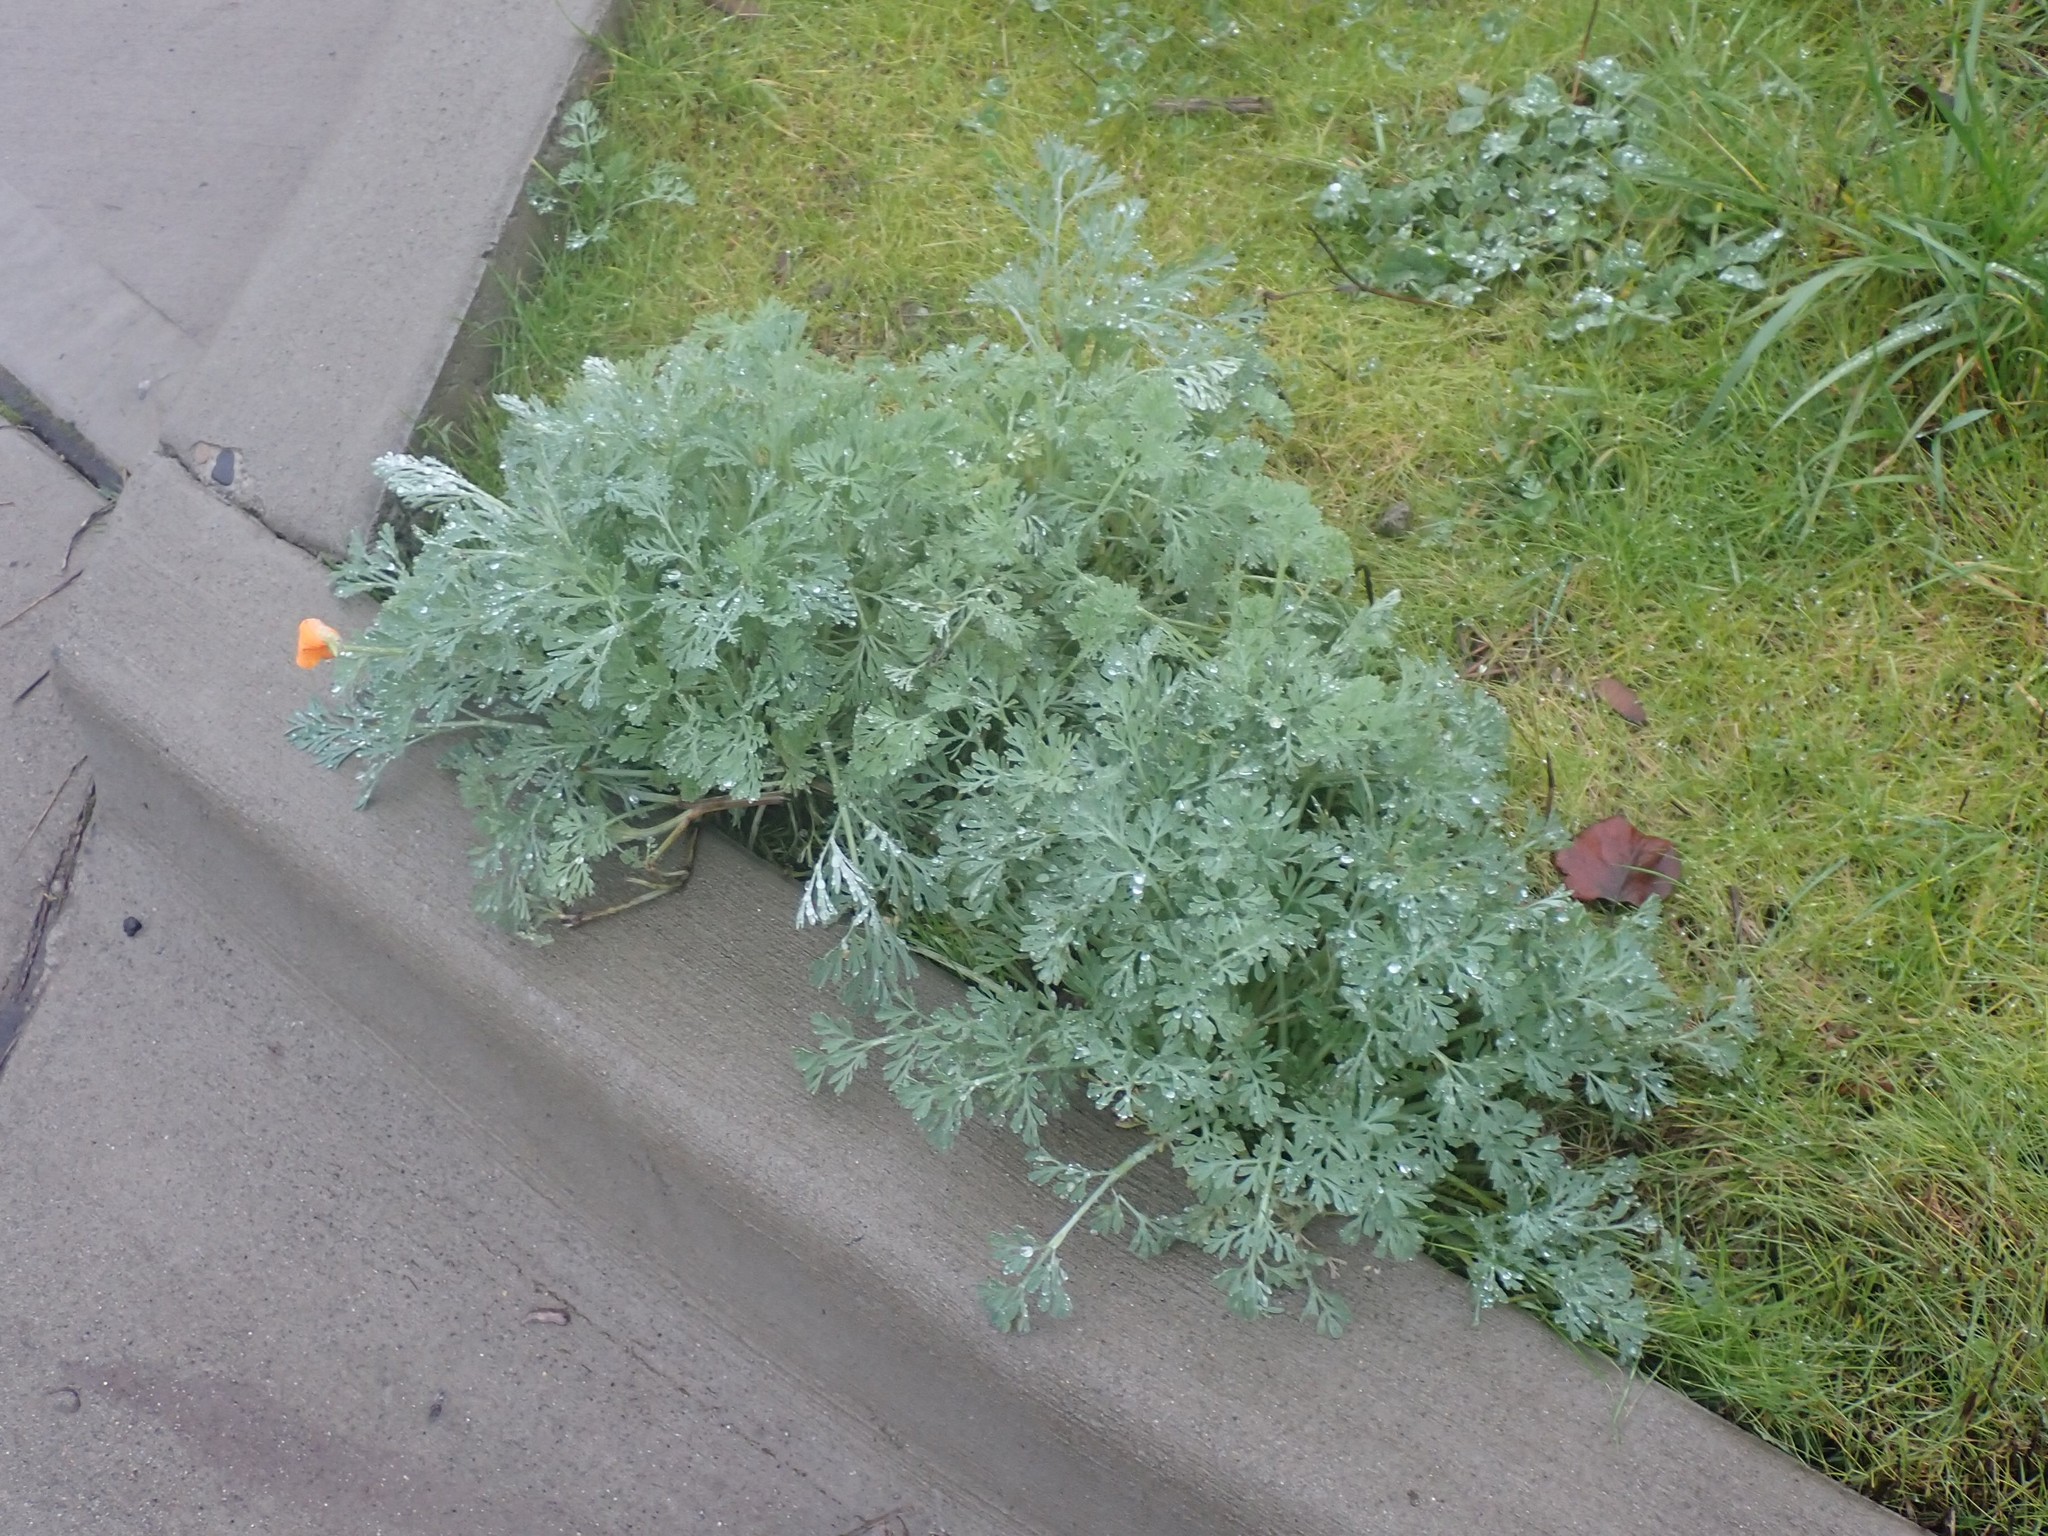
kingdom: Plantae
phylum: Tracheophyta
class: Magnoliopsida
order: Ranunculales
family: Papaveraceae
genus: Eschscholzia
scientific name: Eschscholzia californica
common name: California poppy
